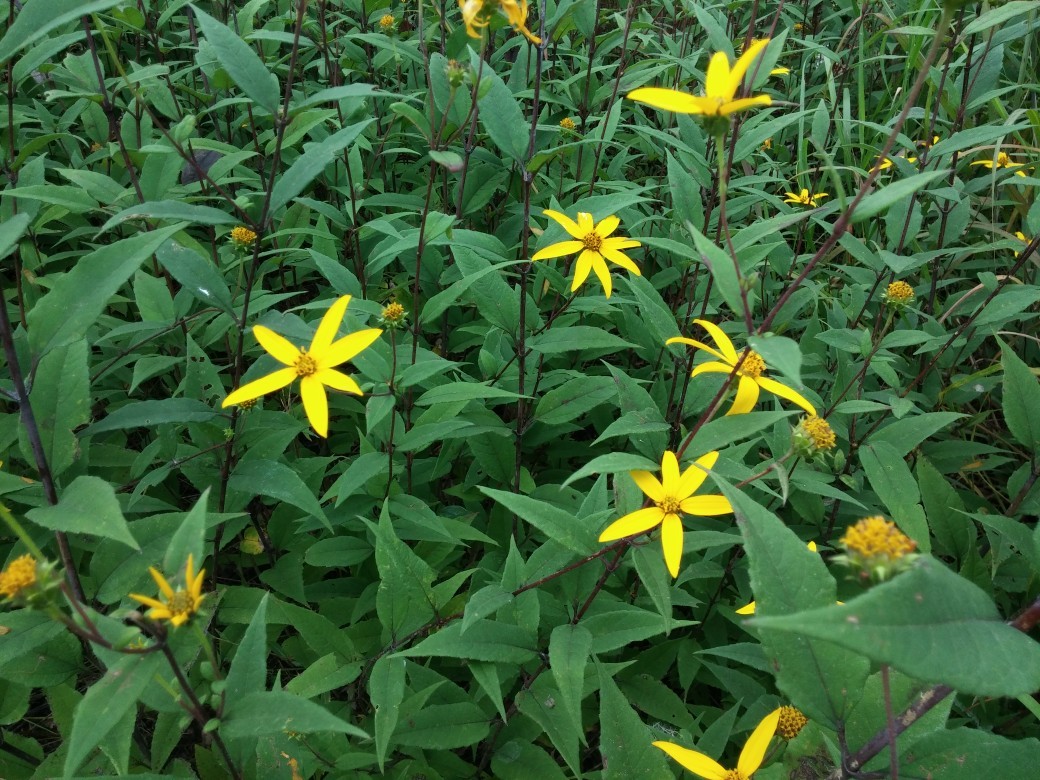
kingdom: Plantae
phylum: Tracheophyta
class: Magnoliopsida
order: Asterales
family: Asteraceae
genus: Helianthus
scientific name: Helianthus strumosus
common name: Pale-leaved sunflower
